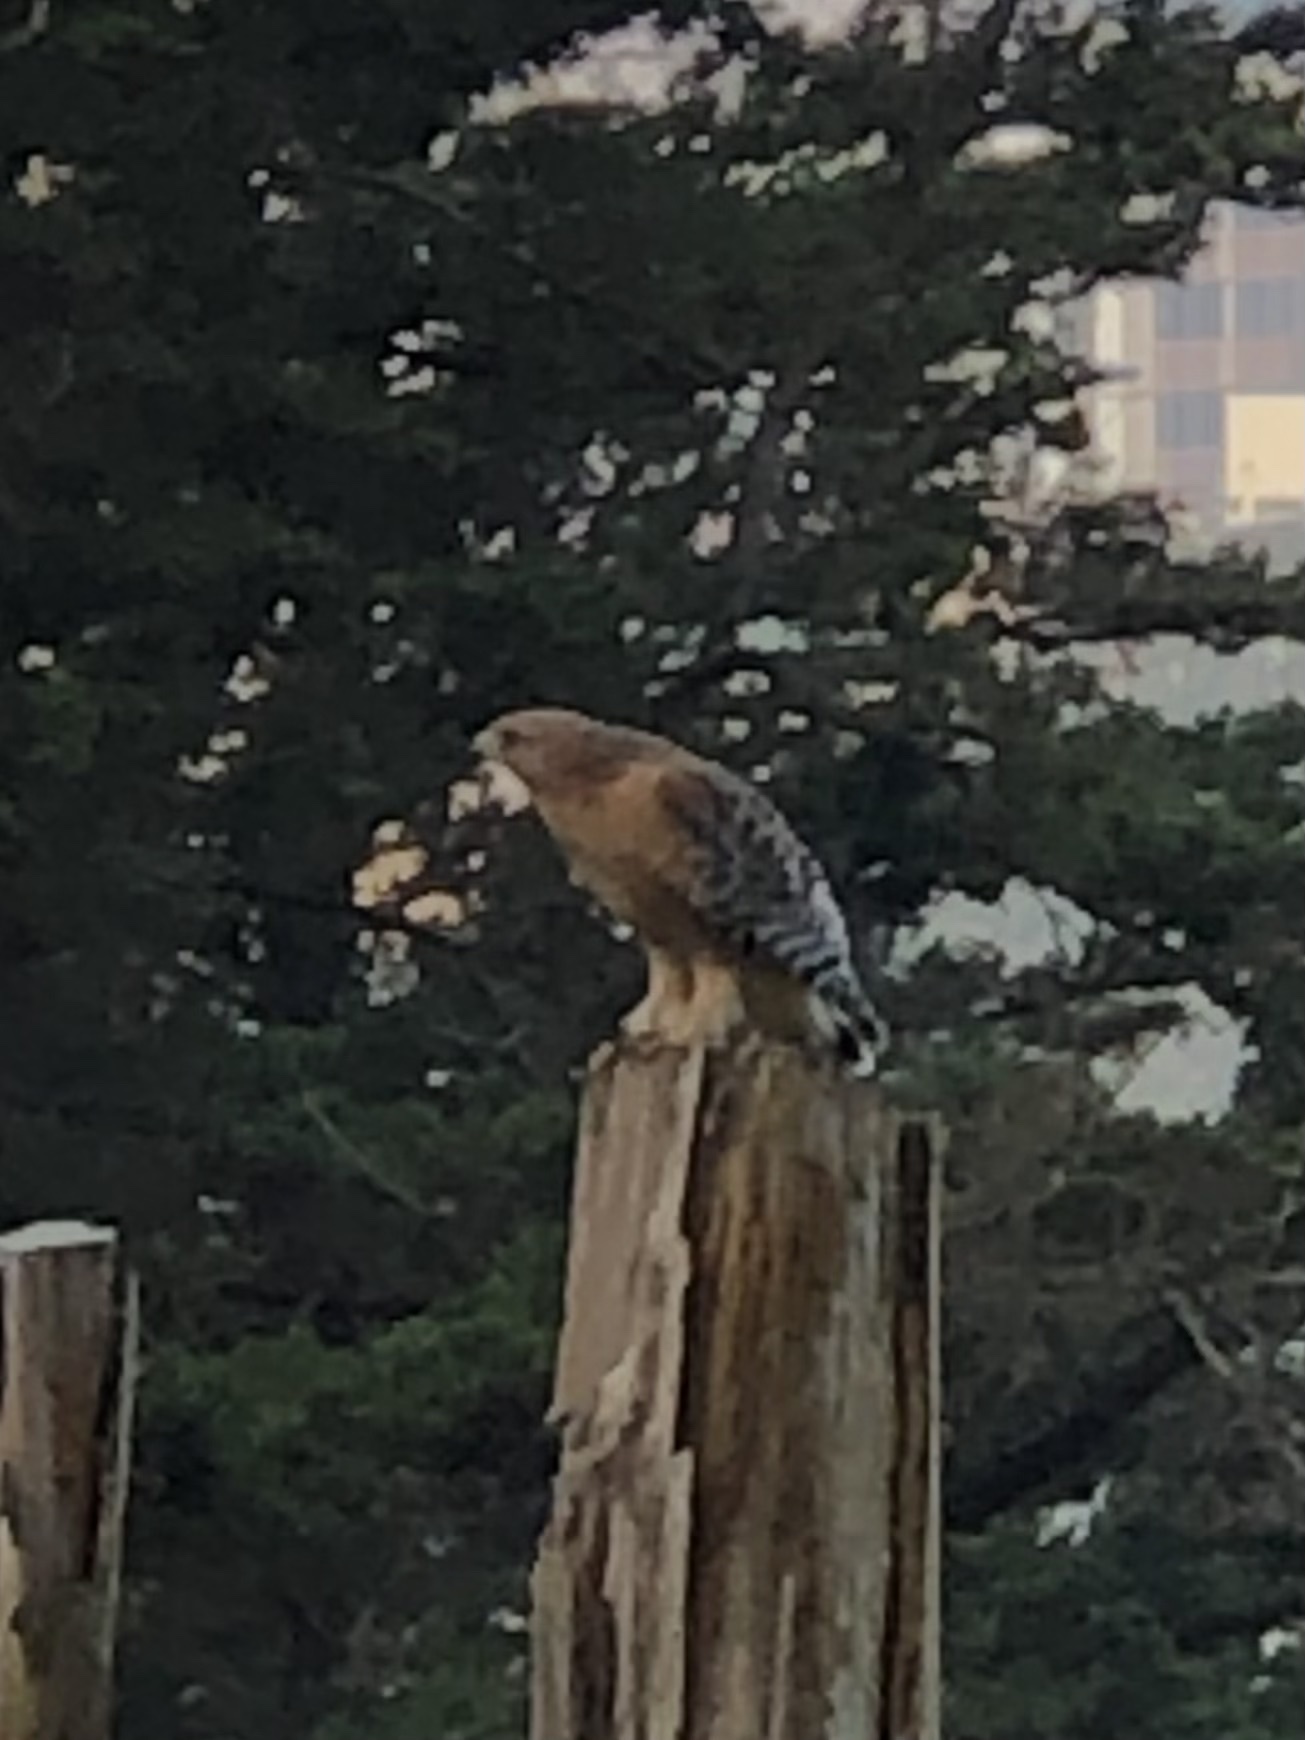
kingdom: Animalia
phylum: Chordata
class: Aves
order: Accipitriformes
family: Accipitridae
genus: Buteo
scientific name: Buteo lineatus
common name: Red-shouldered hawk
